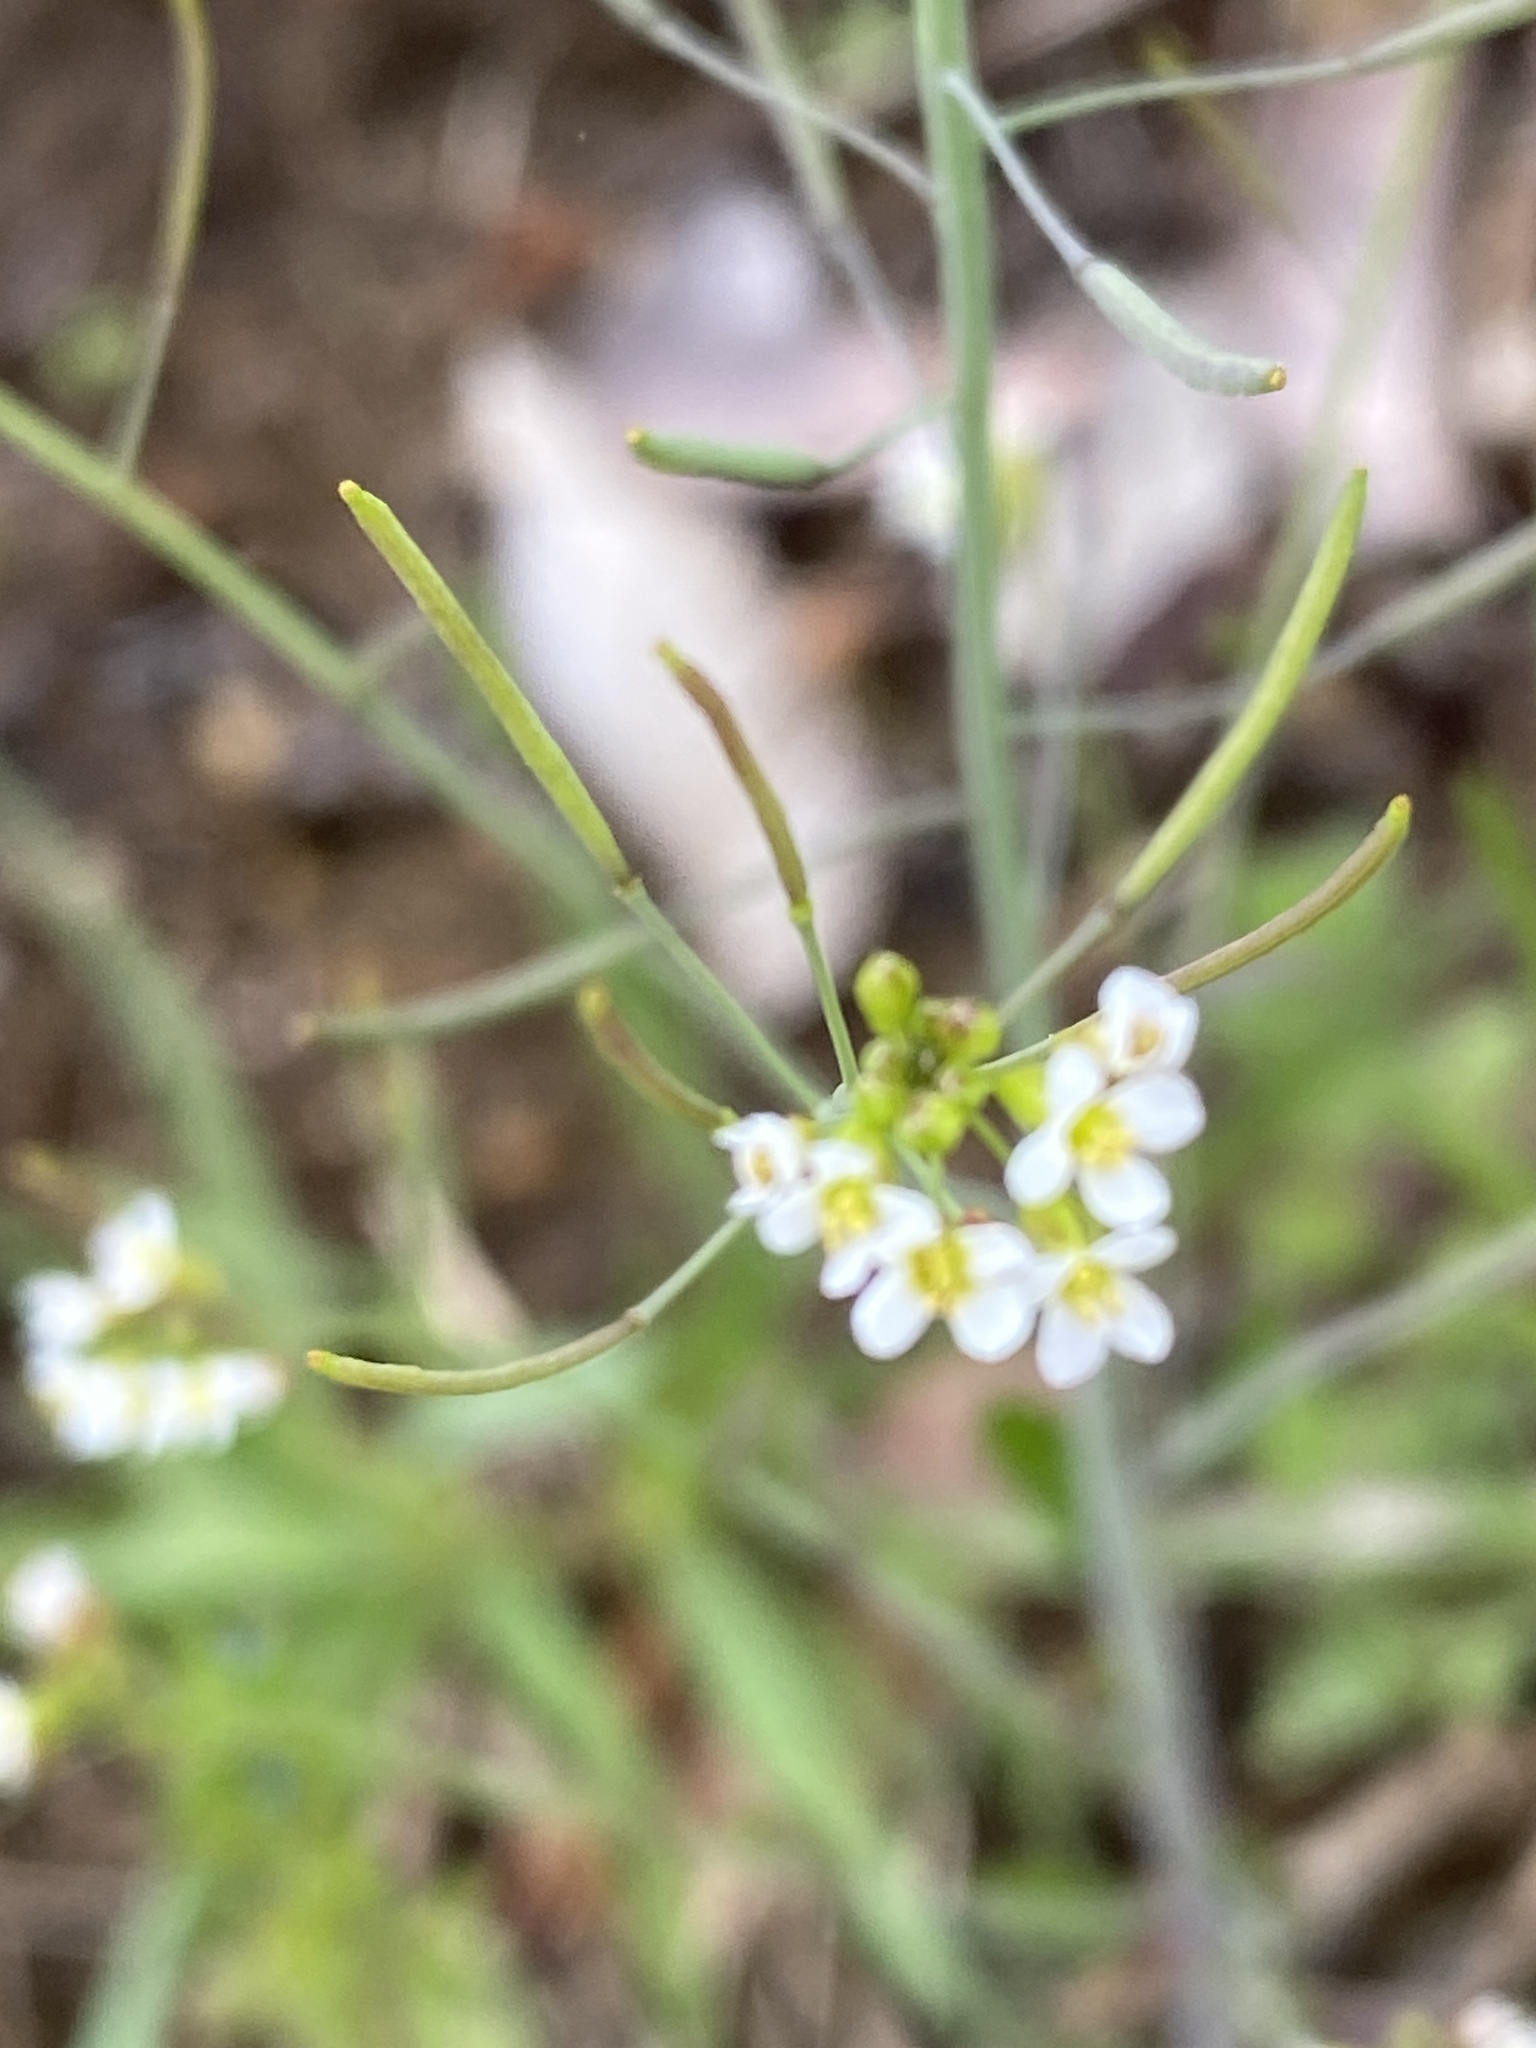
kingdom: Plantae
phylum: Tracheophyta
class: Magnoliopsida
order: Brassicales
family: Brassicaceae
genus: Arabidopsis
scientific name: Arabidopsis thaliana
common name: Thale cress
